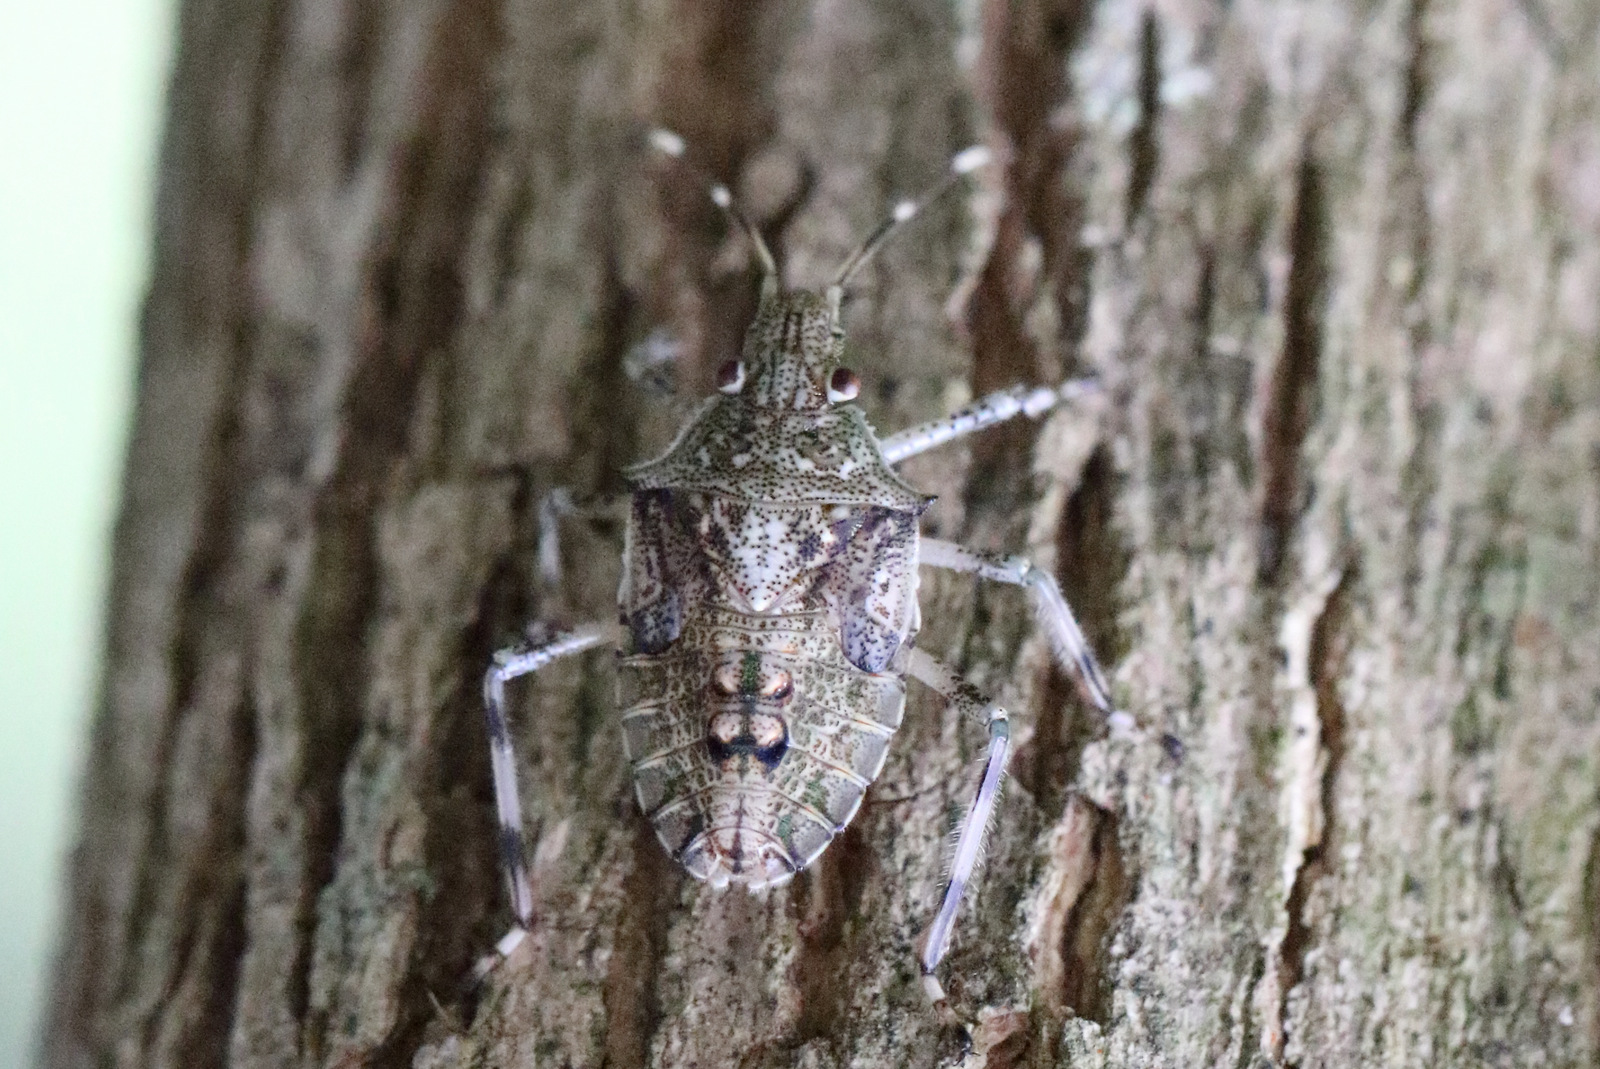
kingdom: Animalia
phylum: Arthropoda
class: Insecta
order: Hemiptera
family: Pentatomidae
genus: Bromocoris
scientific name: Bromocoris
